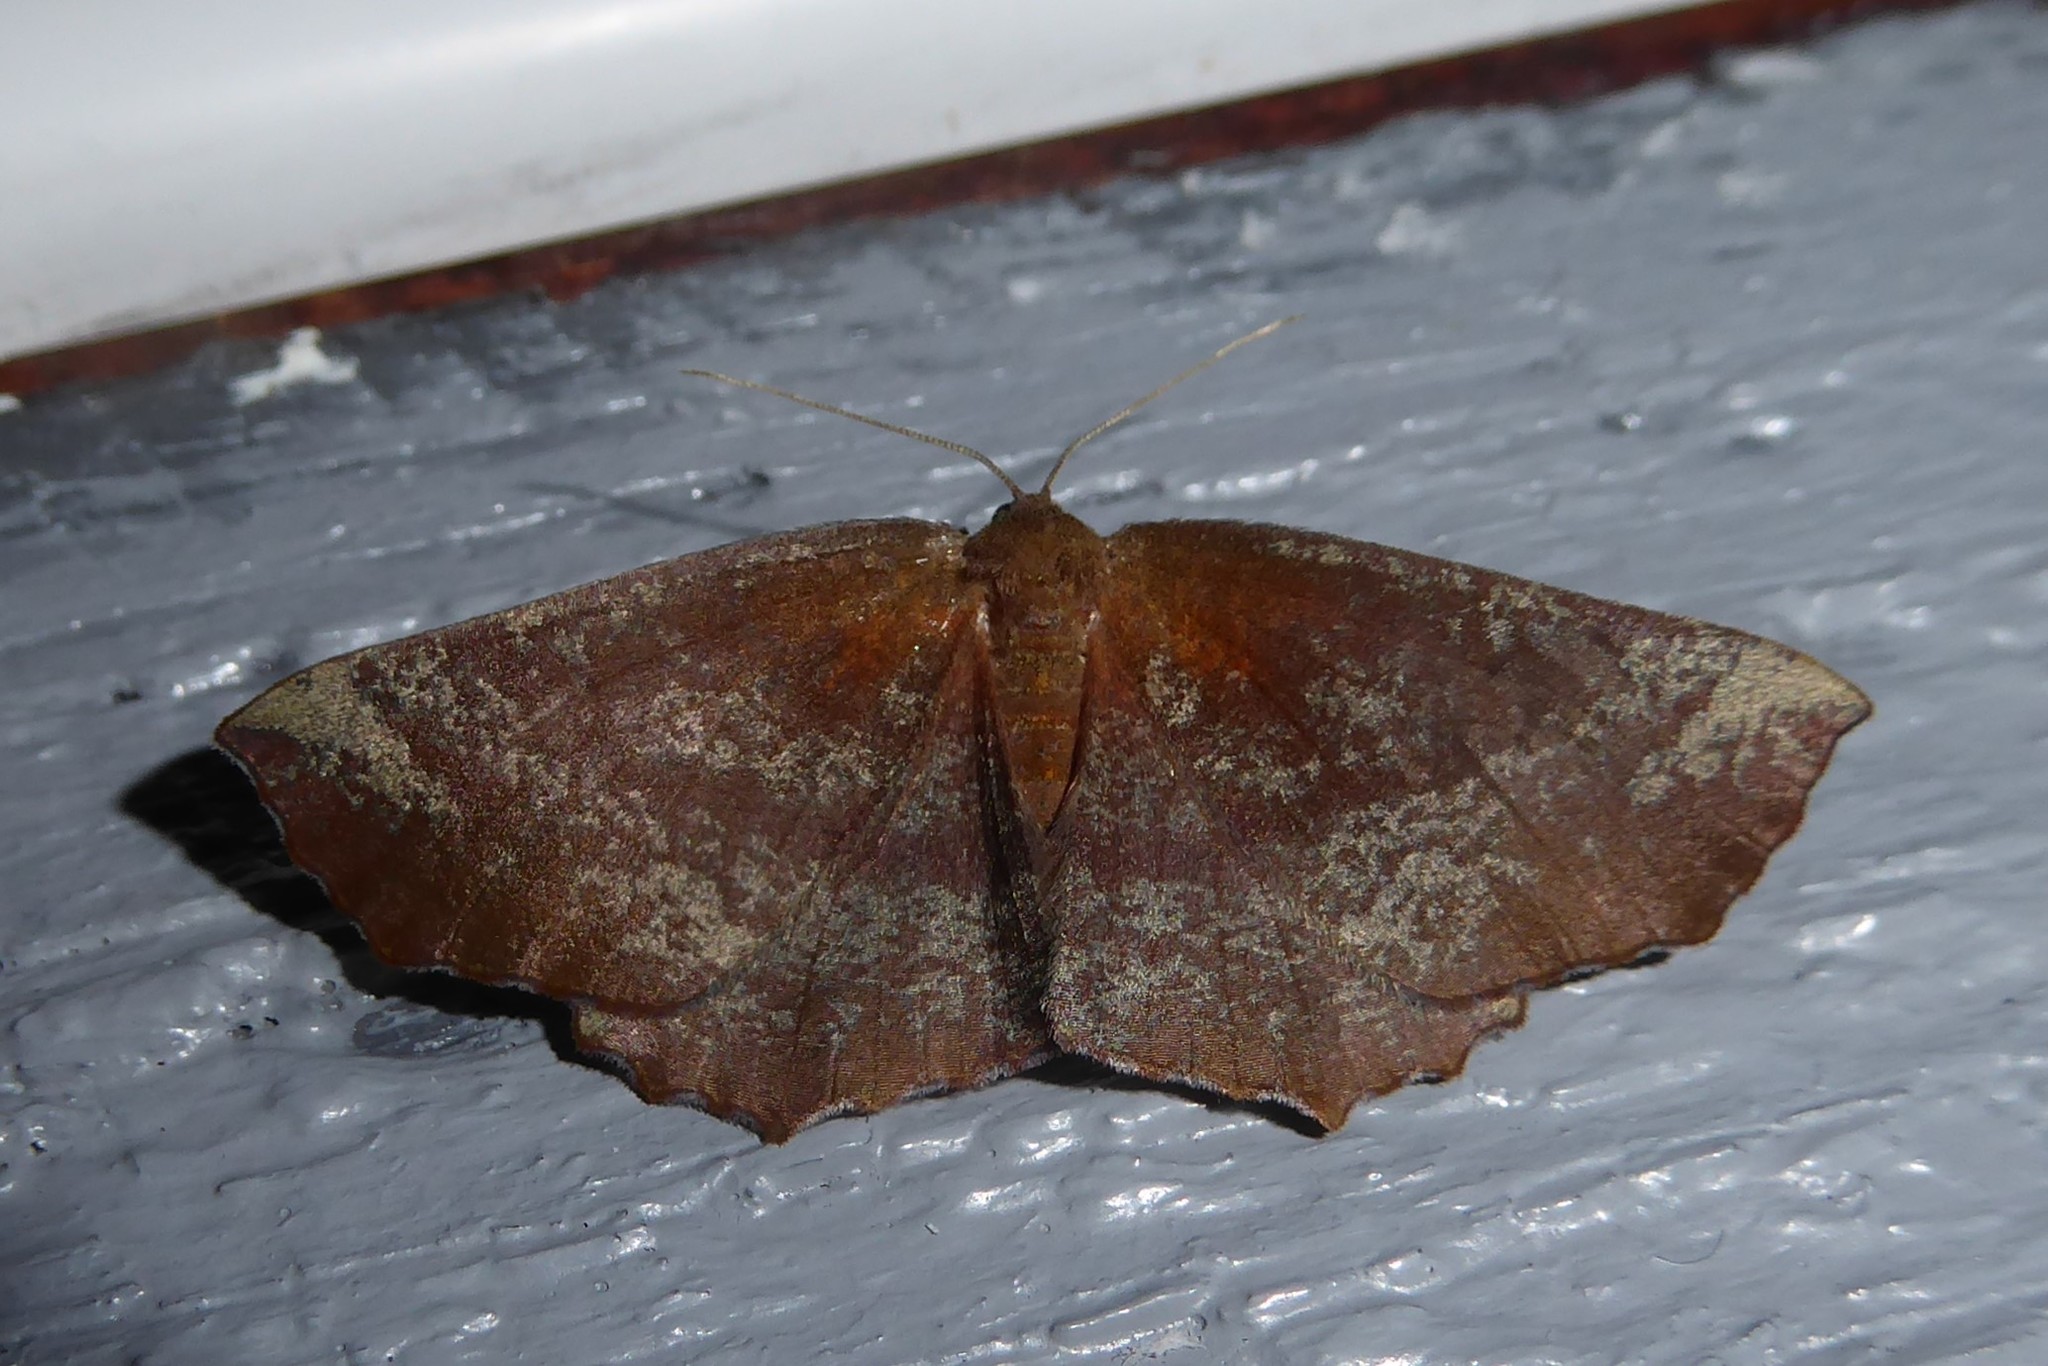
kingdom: Animalia
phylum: Arthropoda
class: Insecta
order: Lepidoptera
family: Geometridae
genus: Xyridacma
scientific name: Xyridacma ustaria
